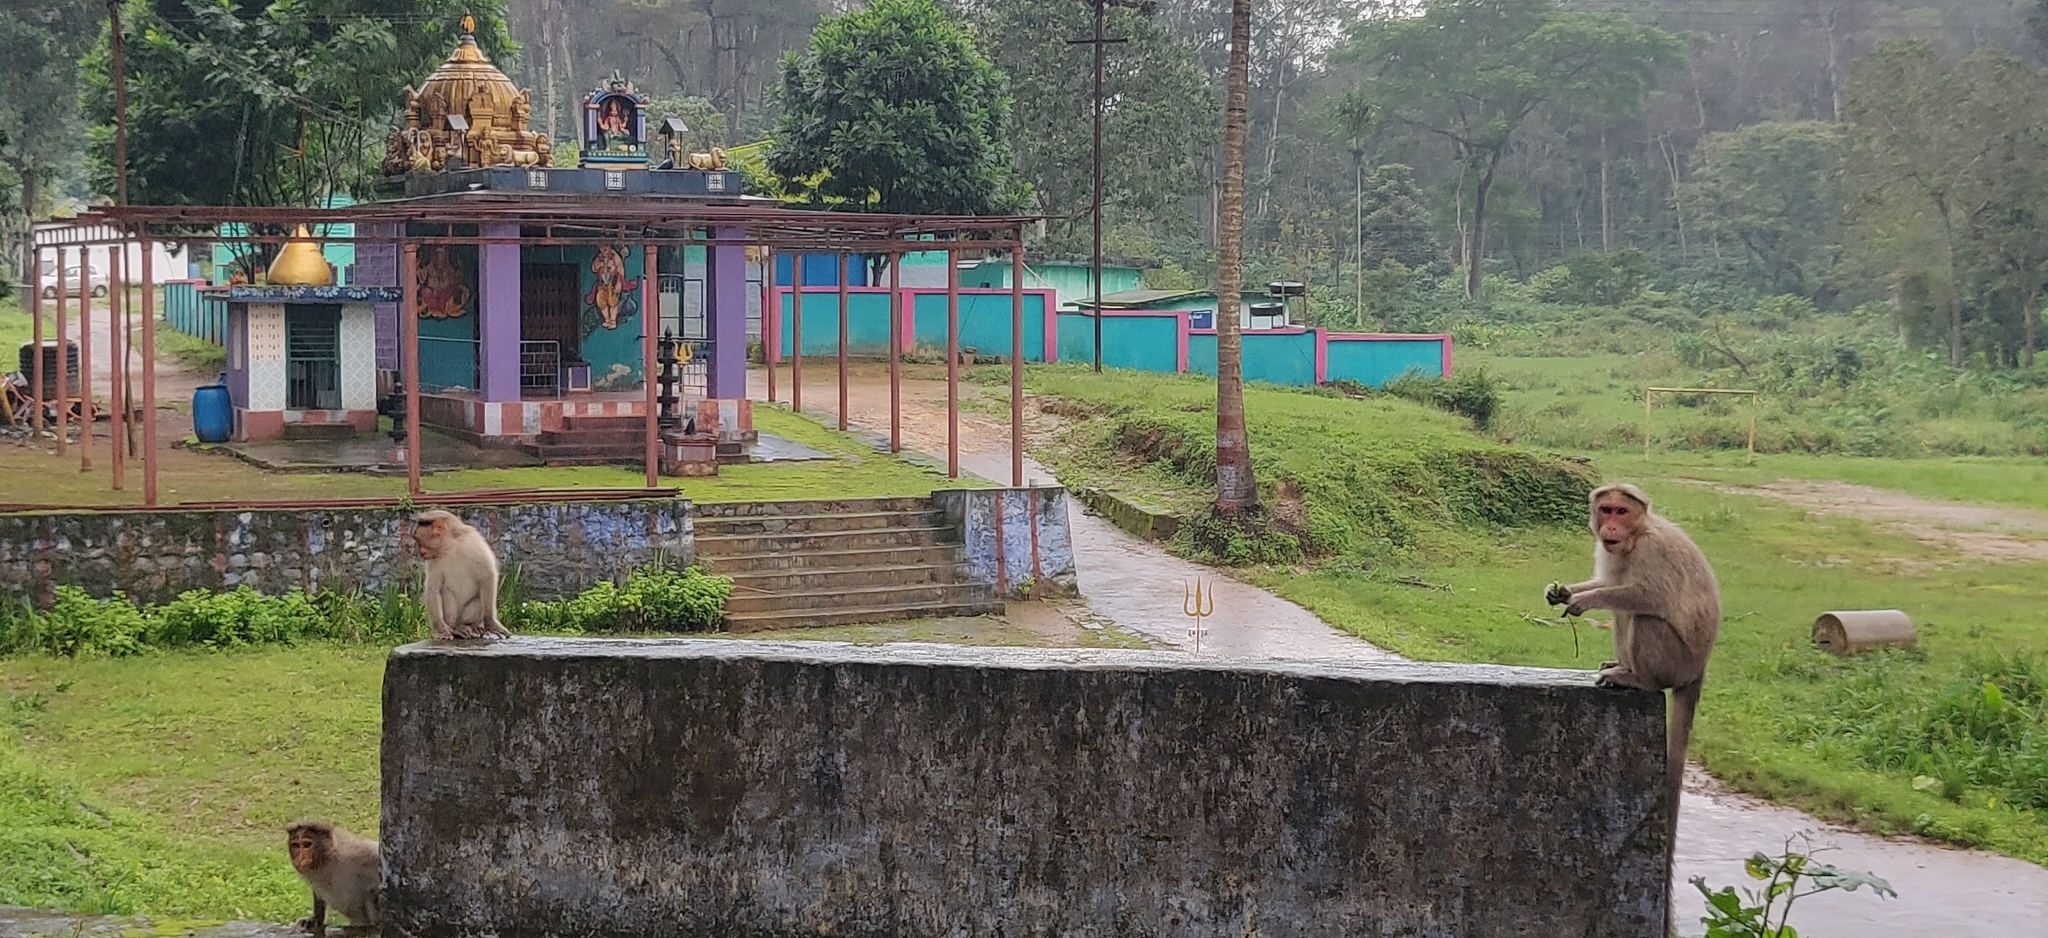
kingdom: Animalia
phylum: Chordata
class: Mammalia
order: Primates
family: Cercopithecidae
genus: Macaca
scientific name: Macaca radiata
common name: Bonnet macaque
